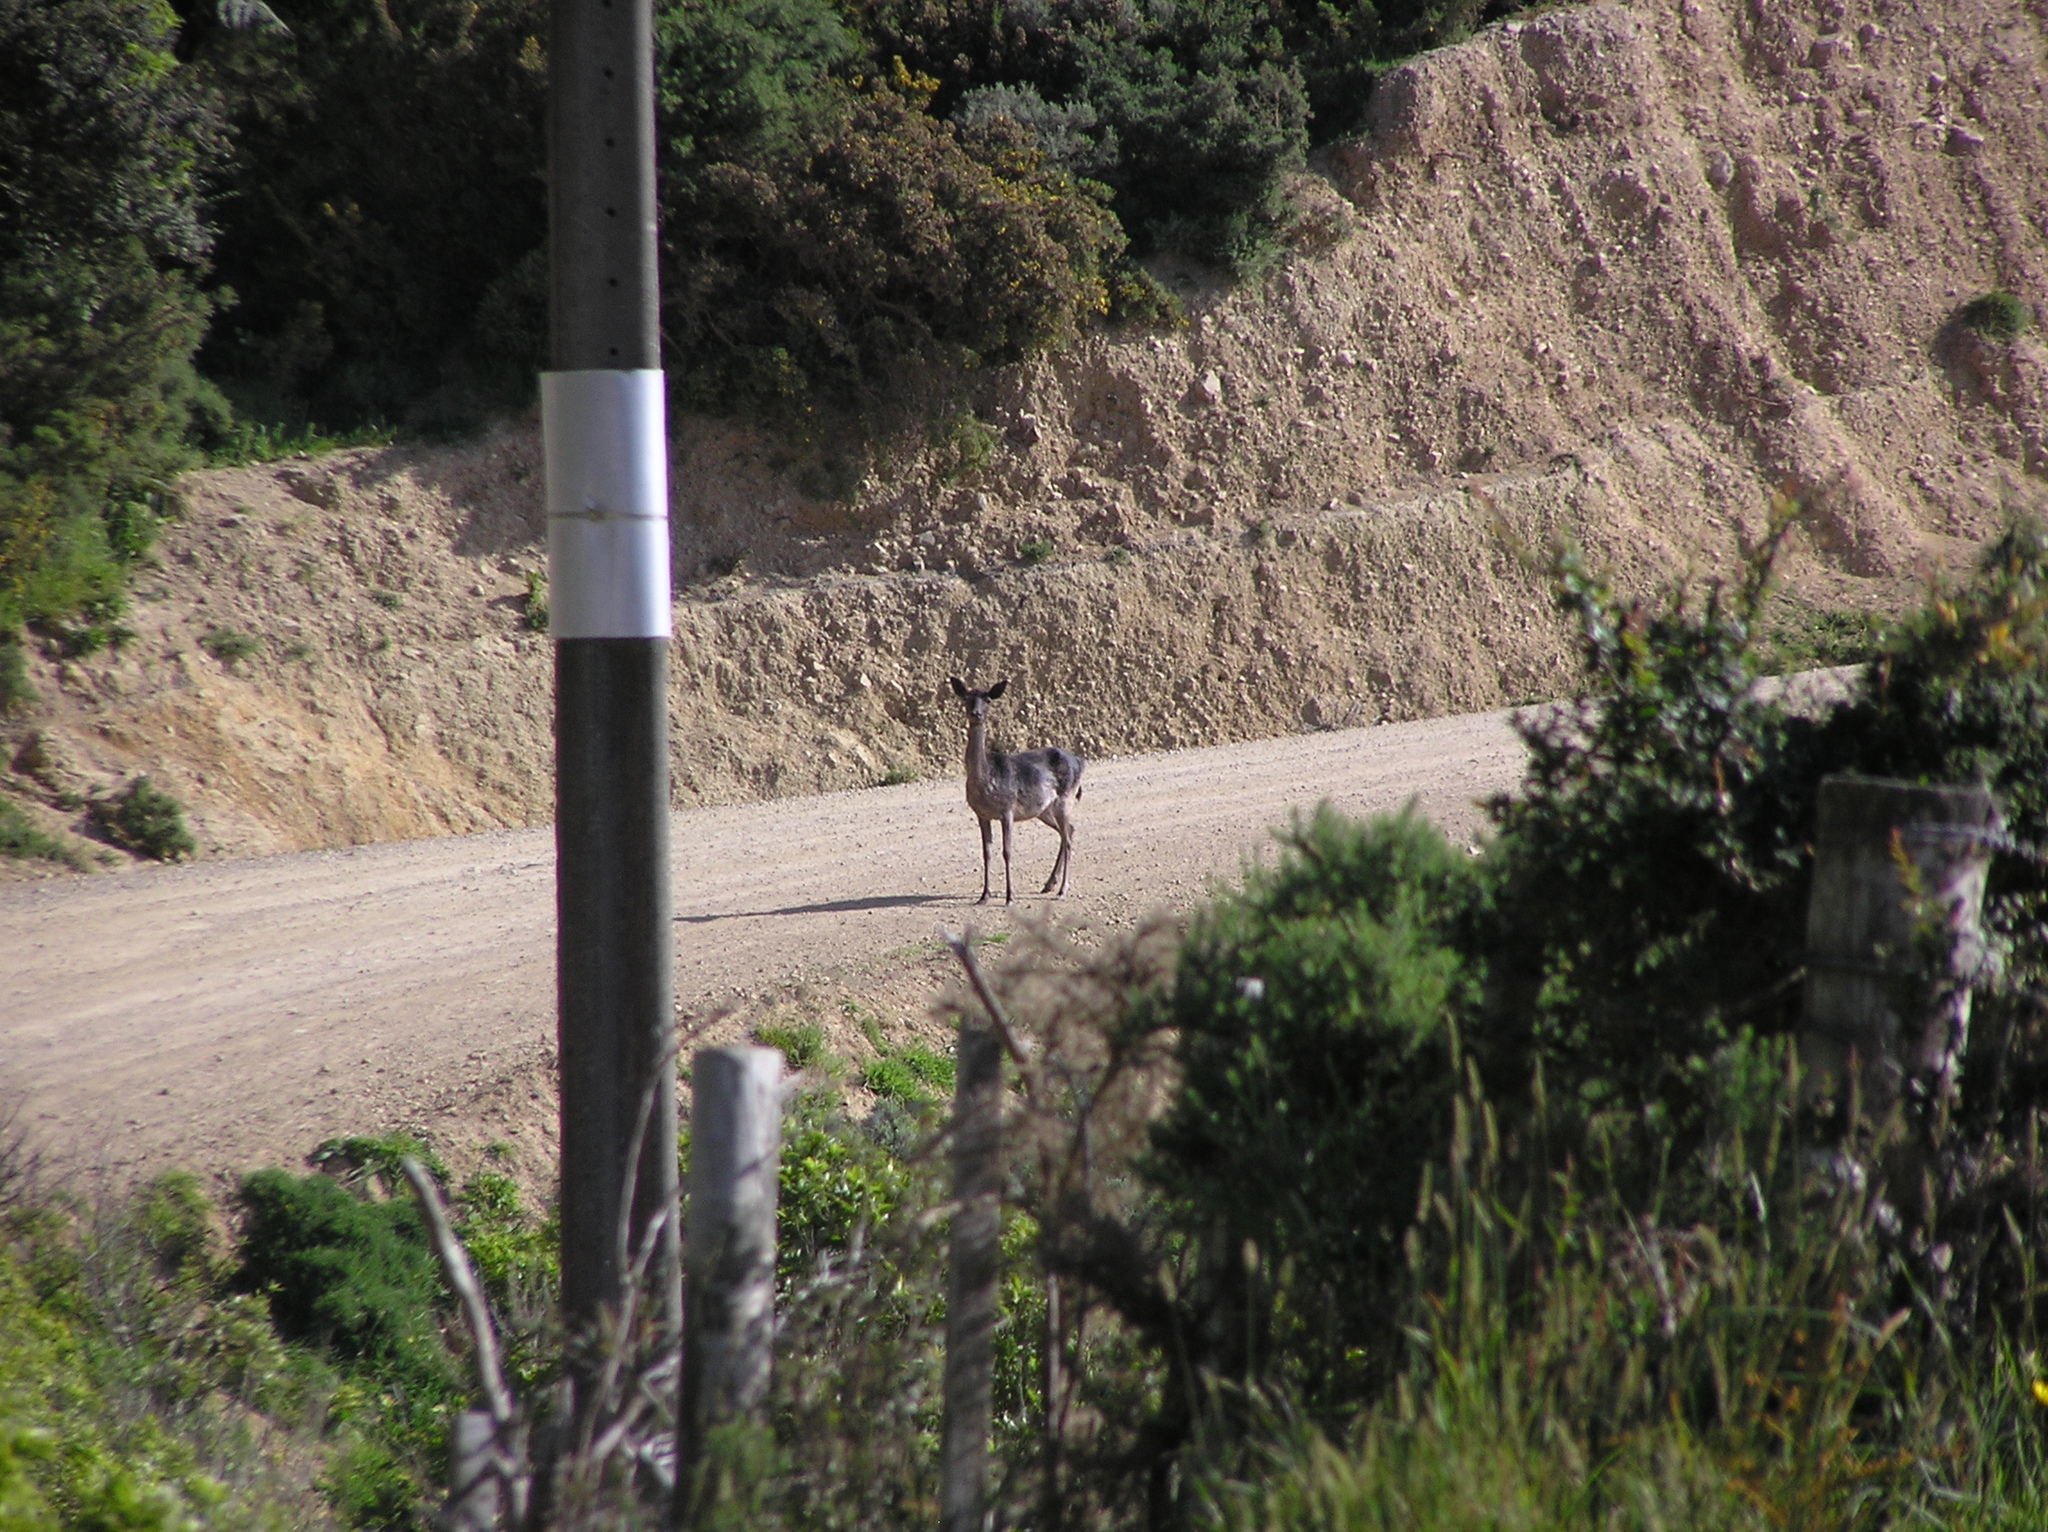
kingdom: Animalia
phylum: Chordata
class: Mammalia
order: Artiodactyla
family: Cervidae
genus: Dama
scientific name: Dama dama
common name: Fallow deer
